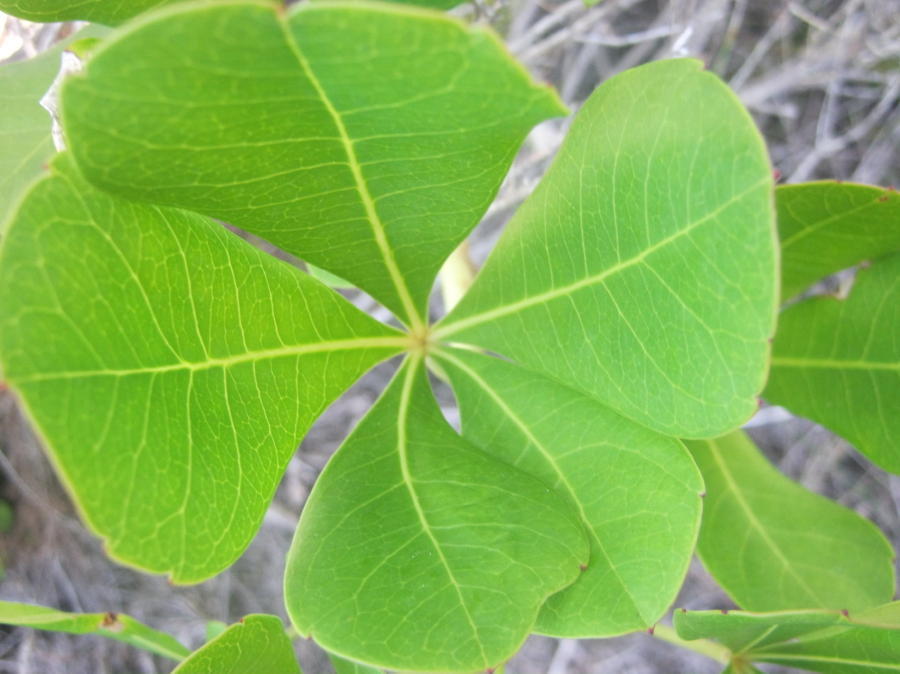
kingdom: Plantae
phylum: Tracheophyta
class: Magnoliopsida
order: Apiales
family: Araliaceae
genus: Cussonia
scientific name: Cussonia thyrsiflora
